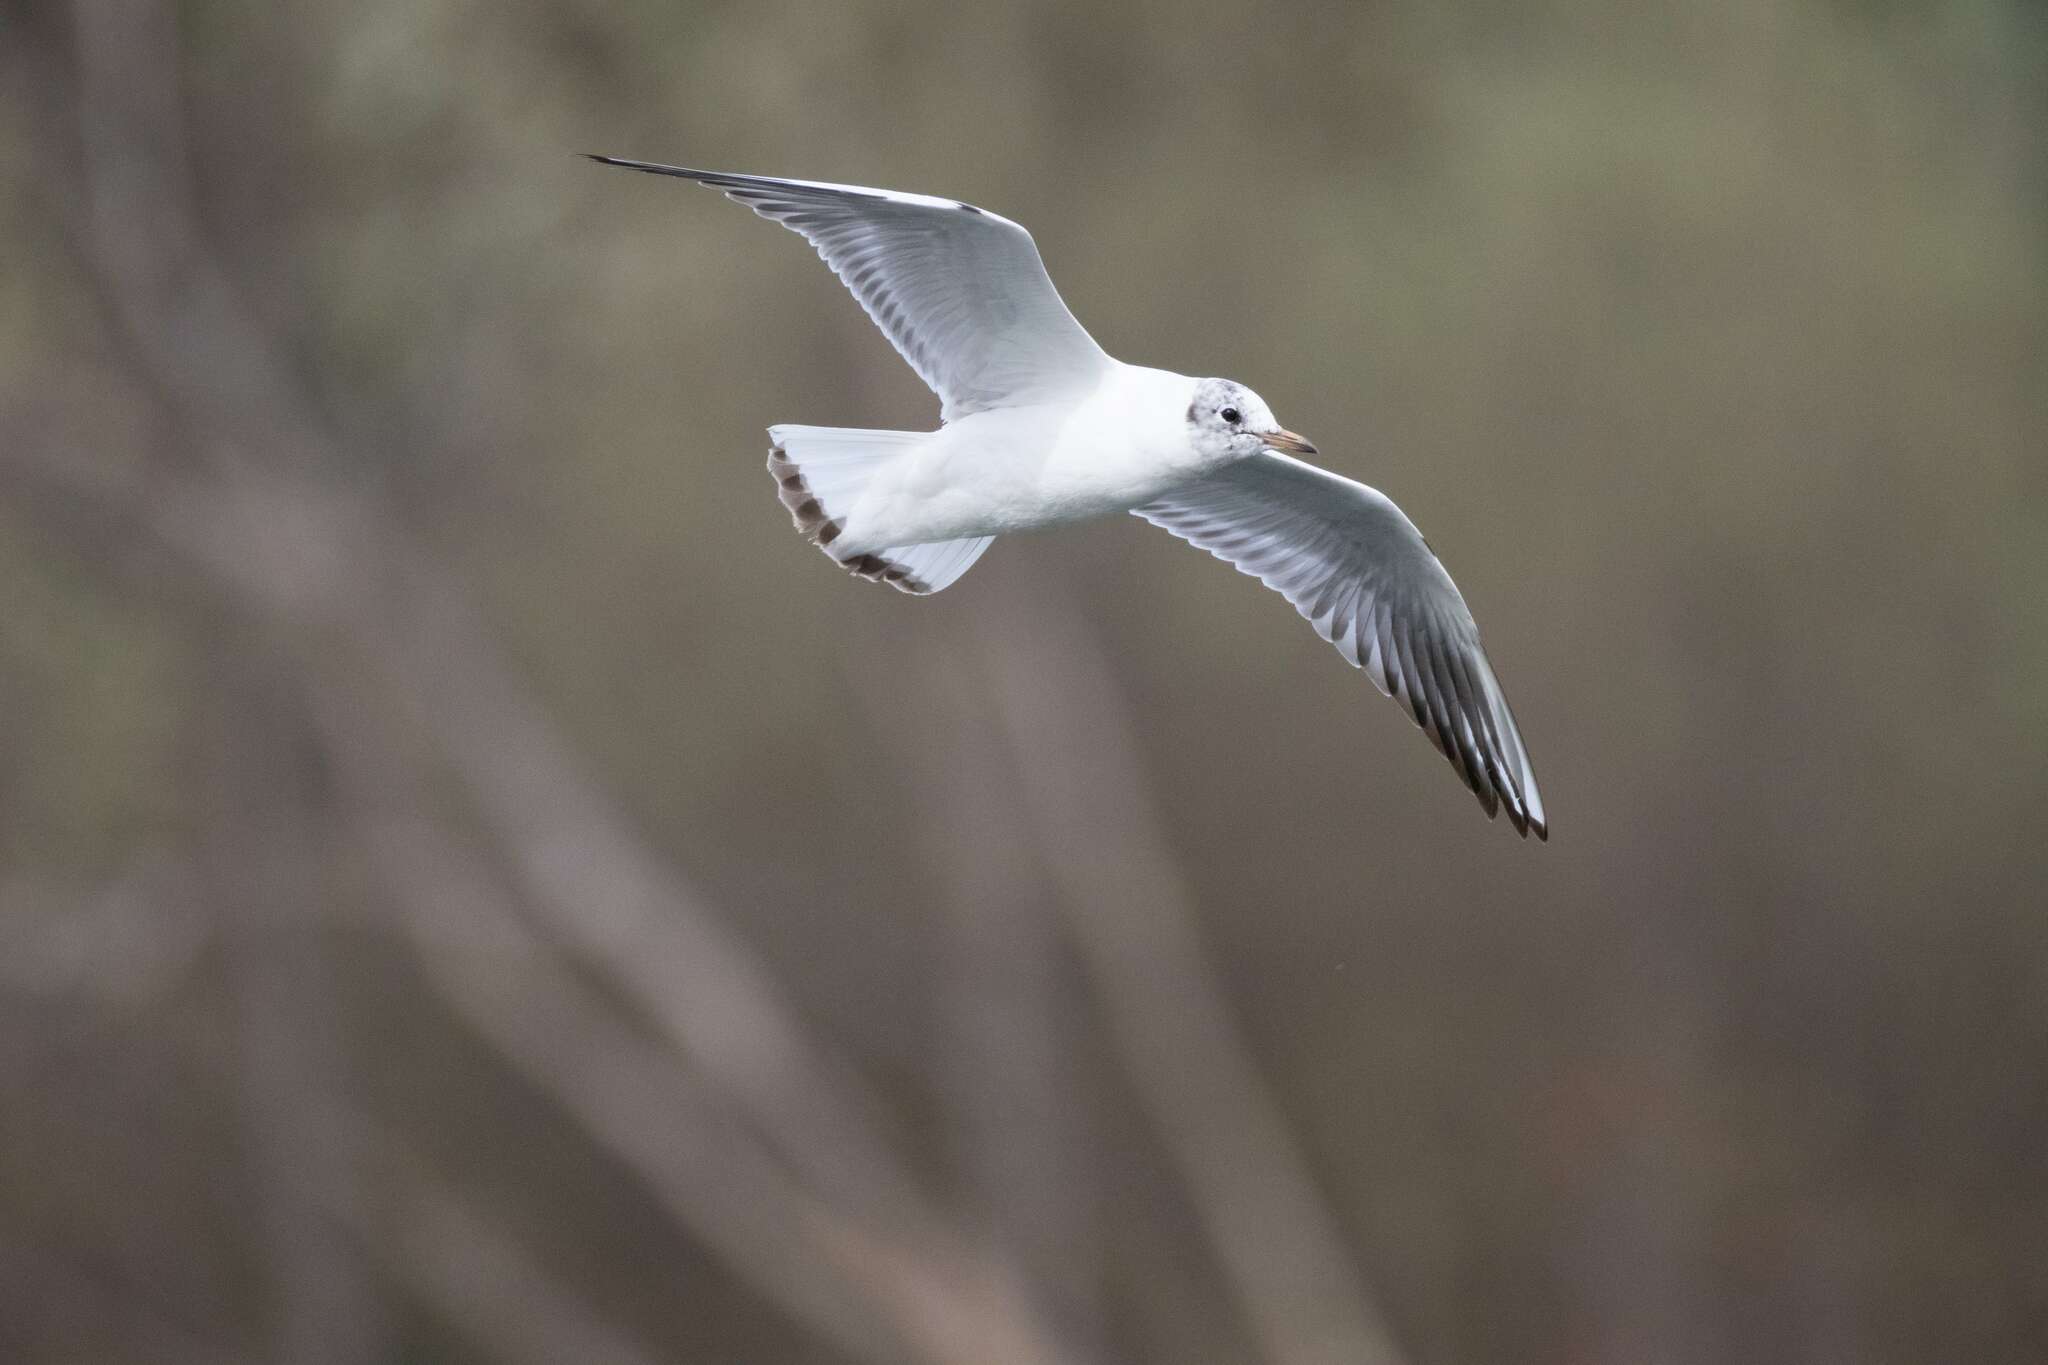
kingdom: Animalia
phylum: Chordata
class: Aves
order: Charadriiformes
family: Laridae
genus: Chroicocephalus
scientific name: Chroicocephalus ridibundus
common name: Black-headed gull
